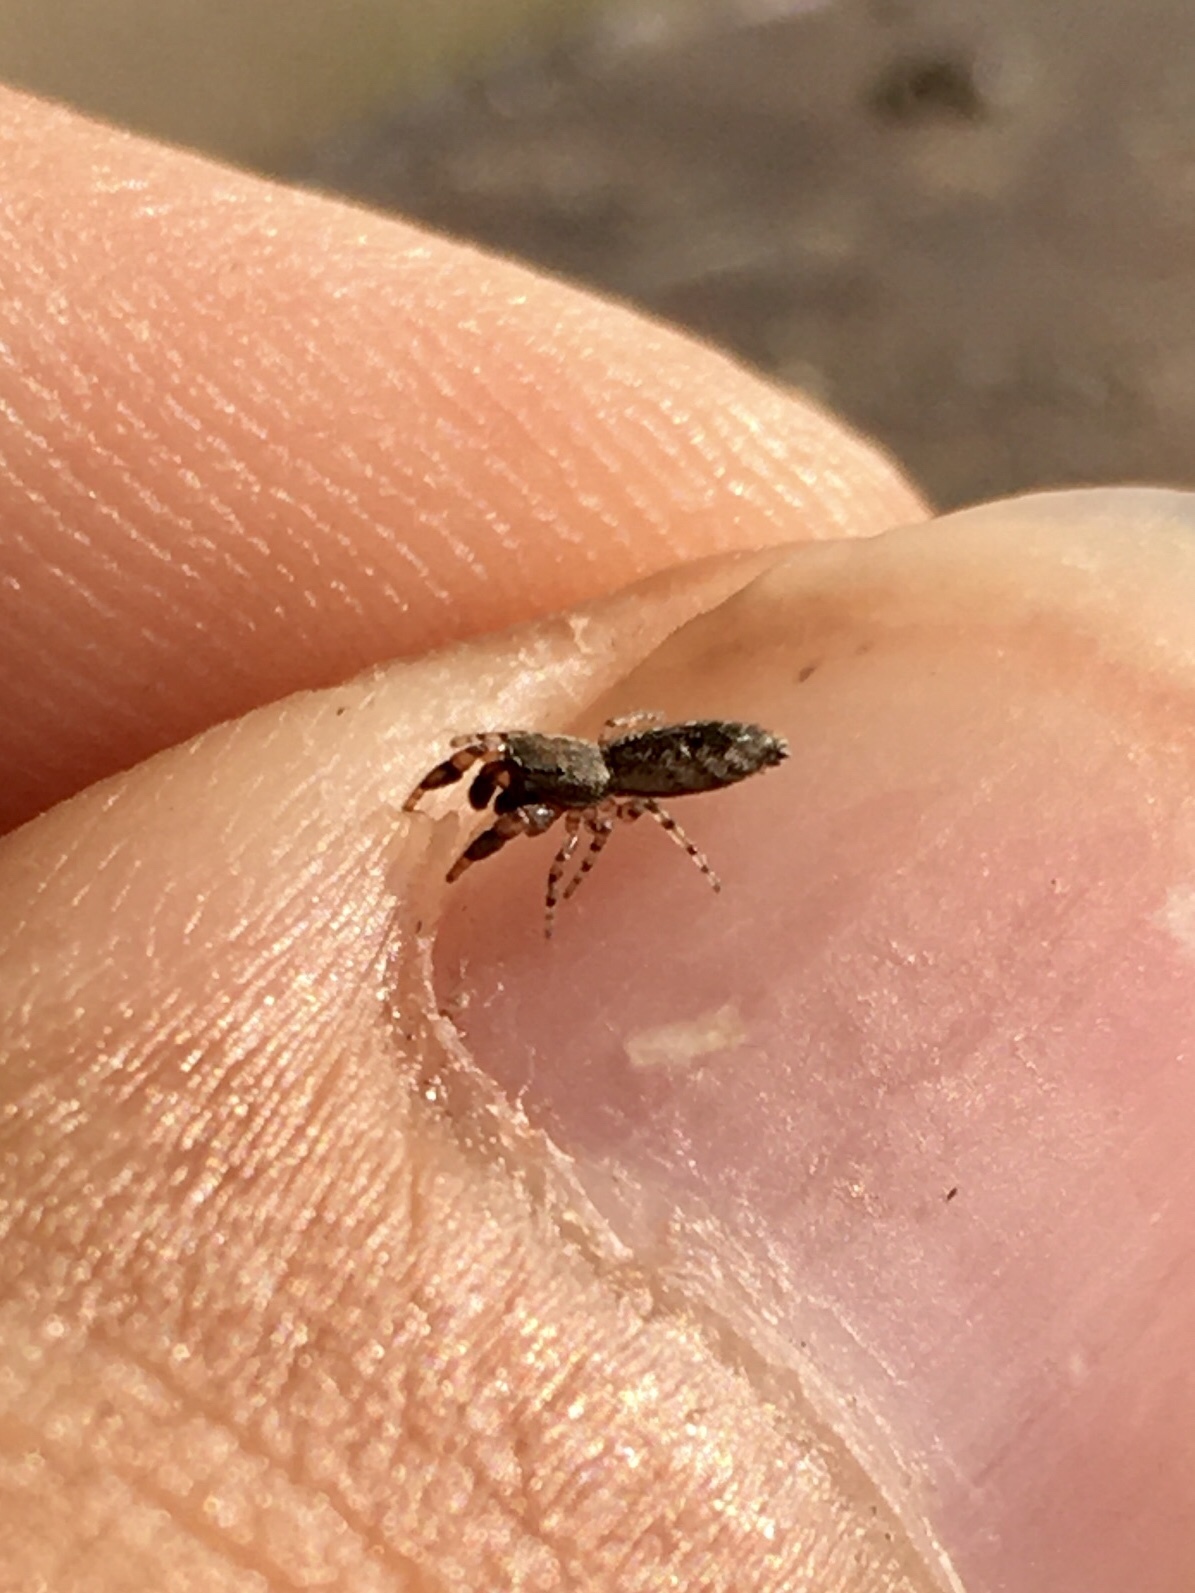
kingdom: Animalia
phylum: Arthropoda
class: Arachnida
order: Araneae
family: Salticidae
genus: Admestina
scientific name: Admestina wheeleri
